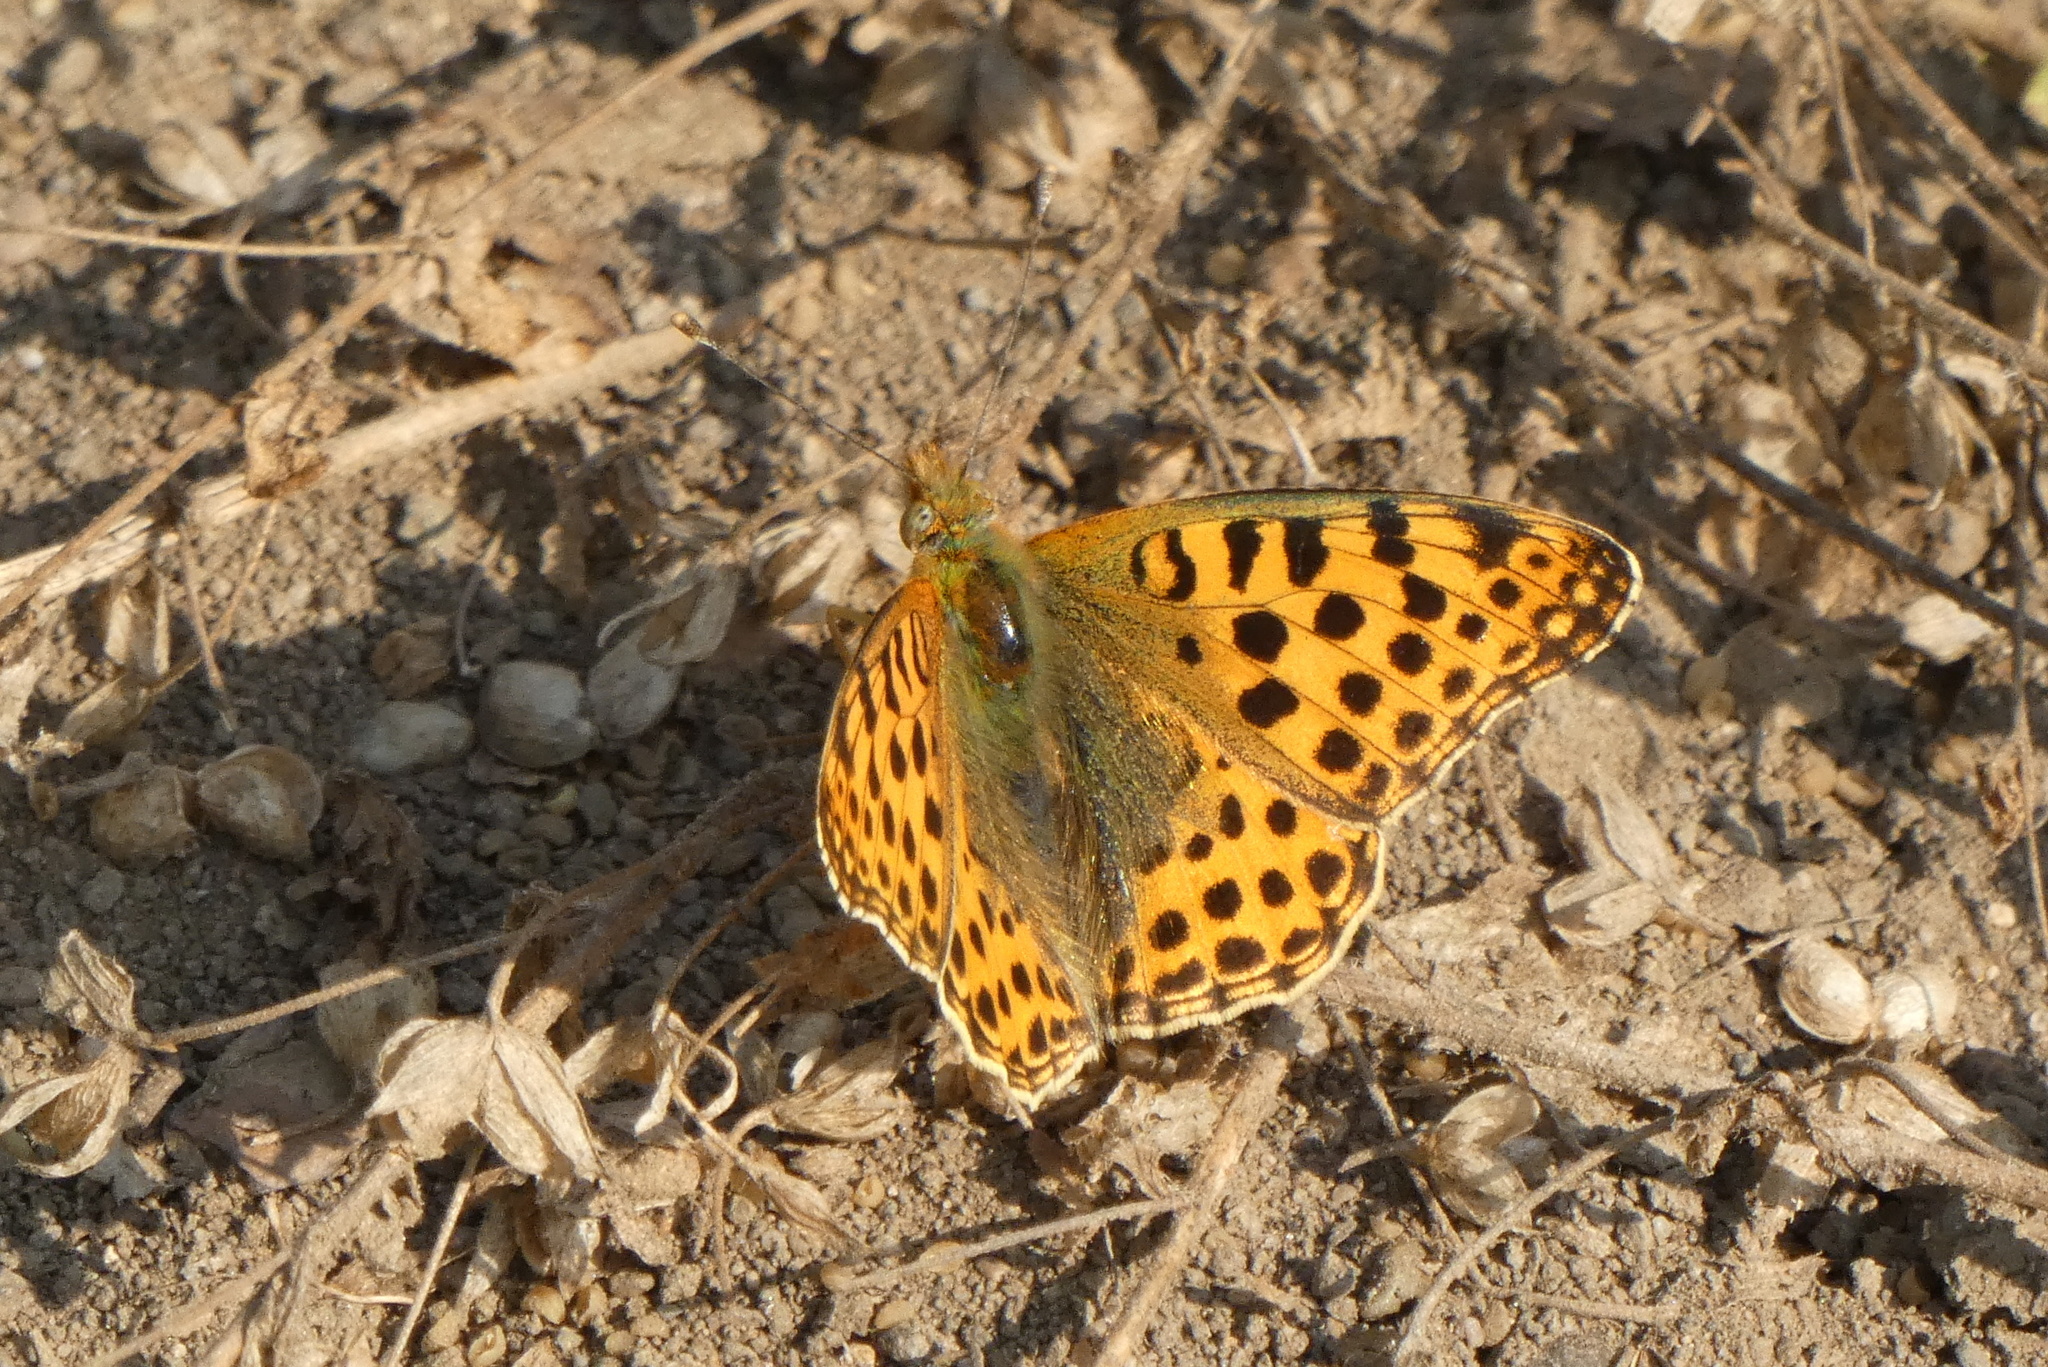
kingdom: Animalia
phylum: Arthropoda
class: Insecta
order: Lepidoptera
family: Nymphalidae
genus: Issoria
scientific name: Issoria lathonia
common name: Queen of spain fritillary
